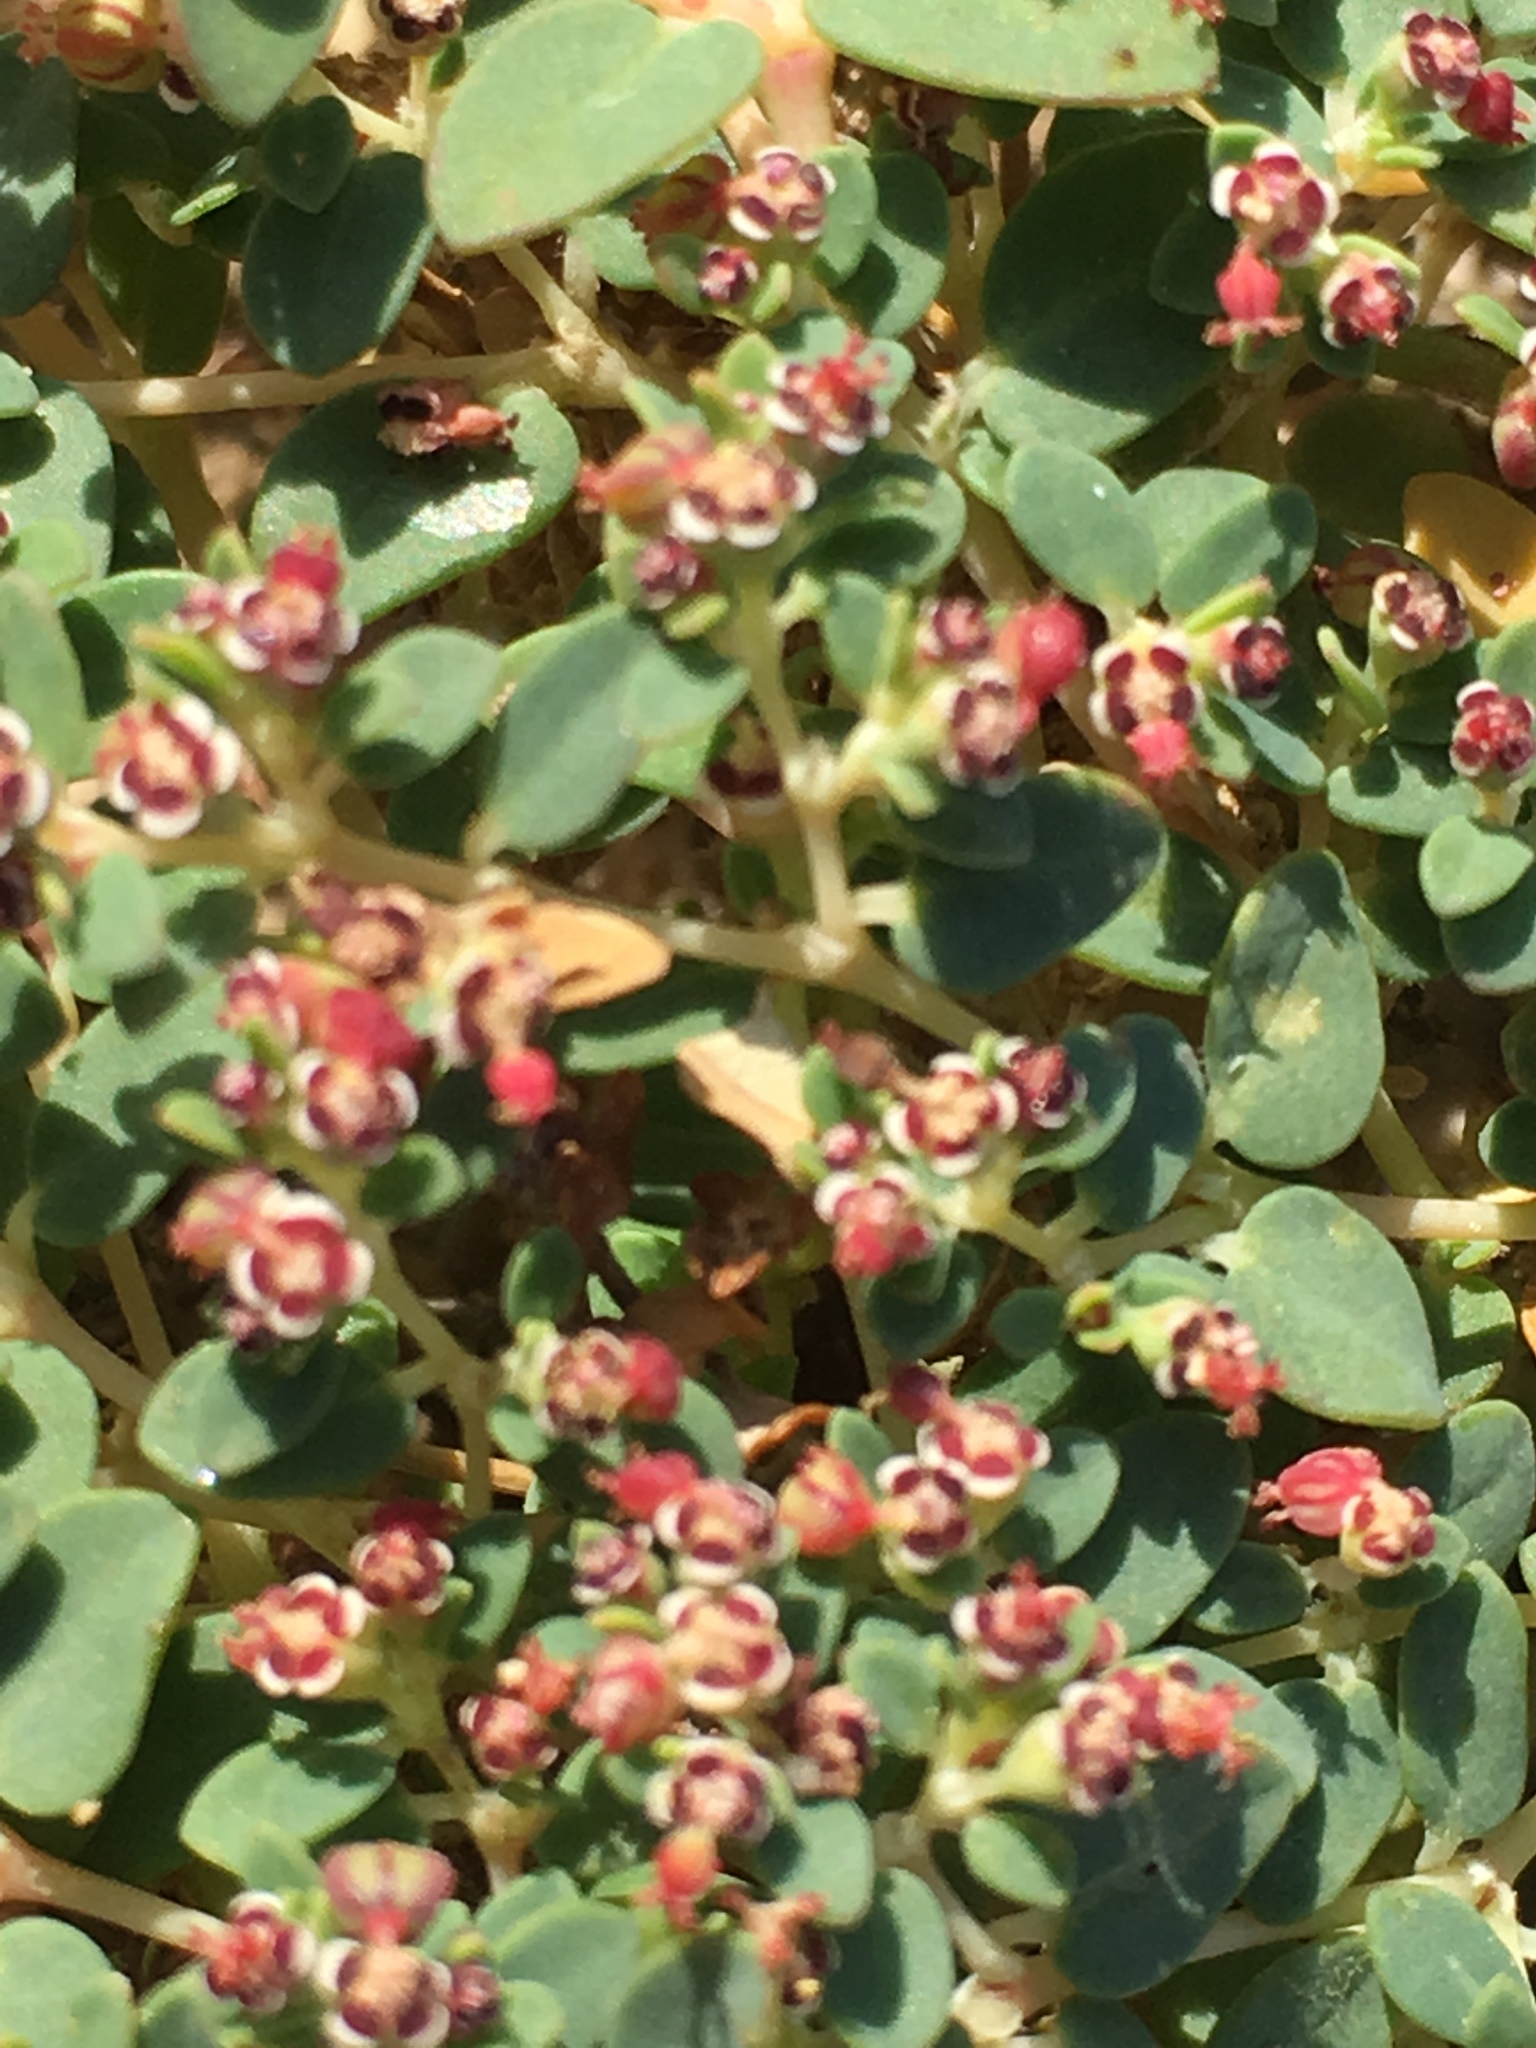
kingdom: Plantae
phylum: Tracheophyta
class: Magnoliopsida
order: Malpighiales
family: Euphorbiaceae
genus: Euphorbia
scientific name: Euphorbia polycarpa
